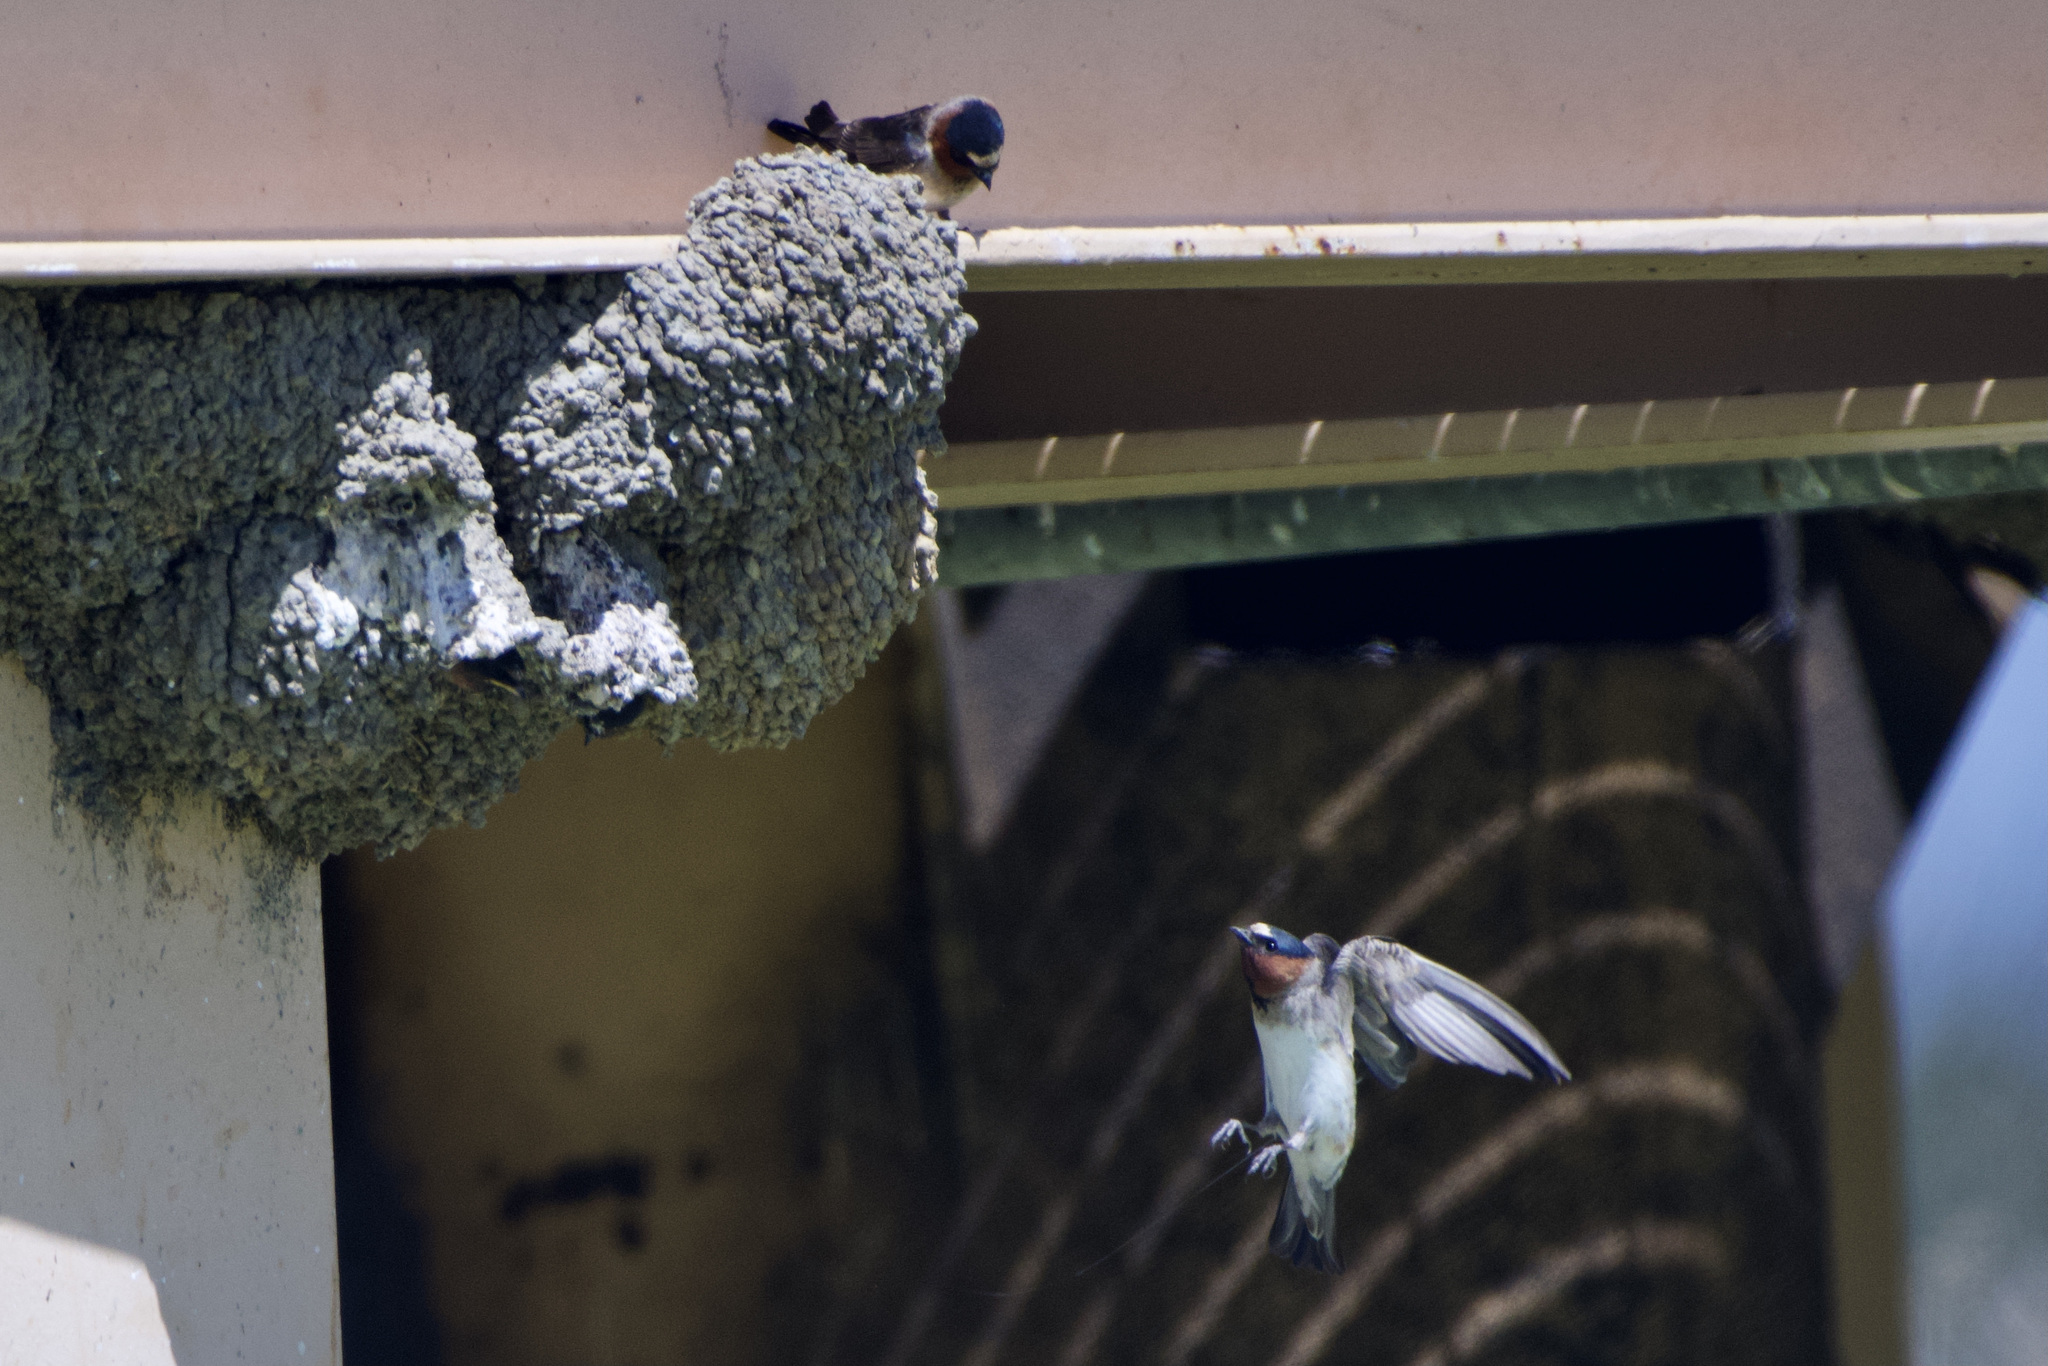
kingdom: Animalia
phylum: Chordata
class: Aves
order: Passeriformes
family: Hirundinidae
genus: Petrochelidon
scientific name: Petrochelidon pyrrhonota
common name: American cliff swallow
